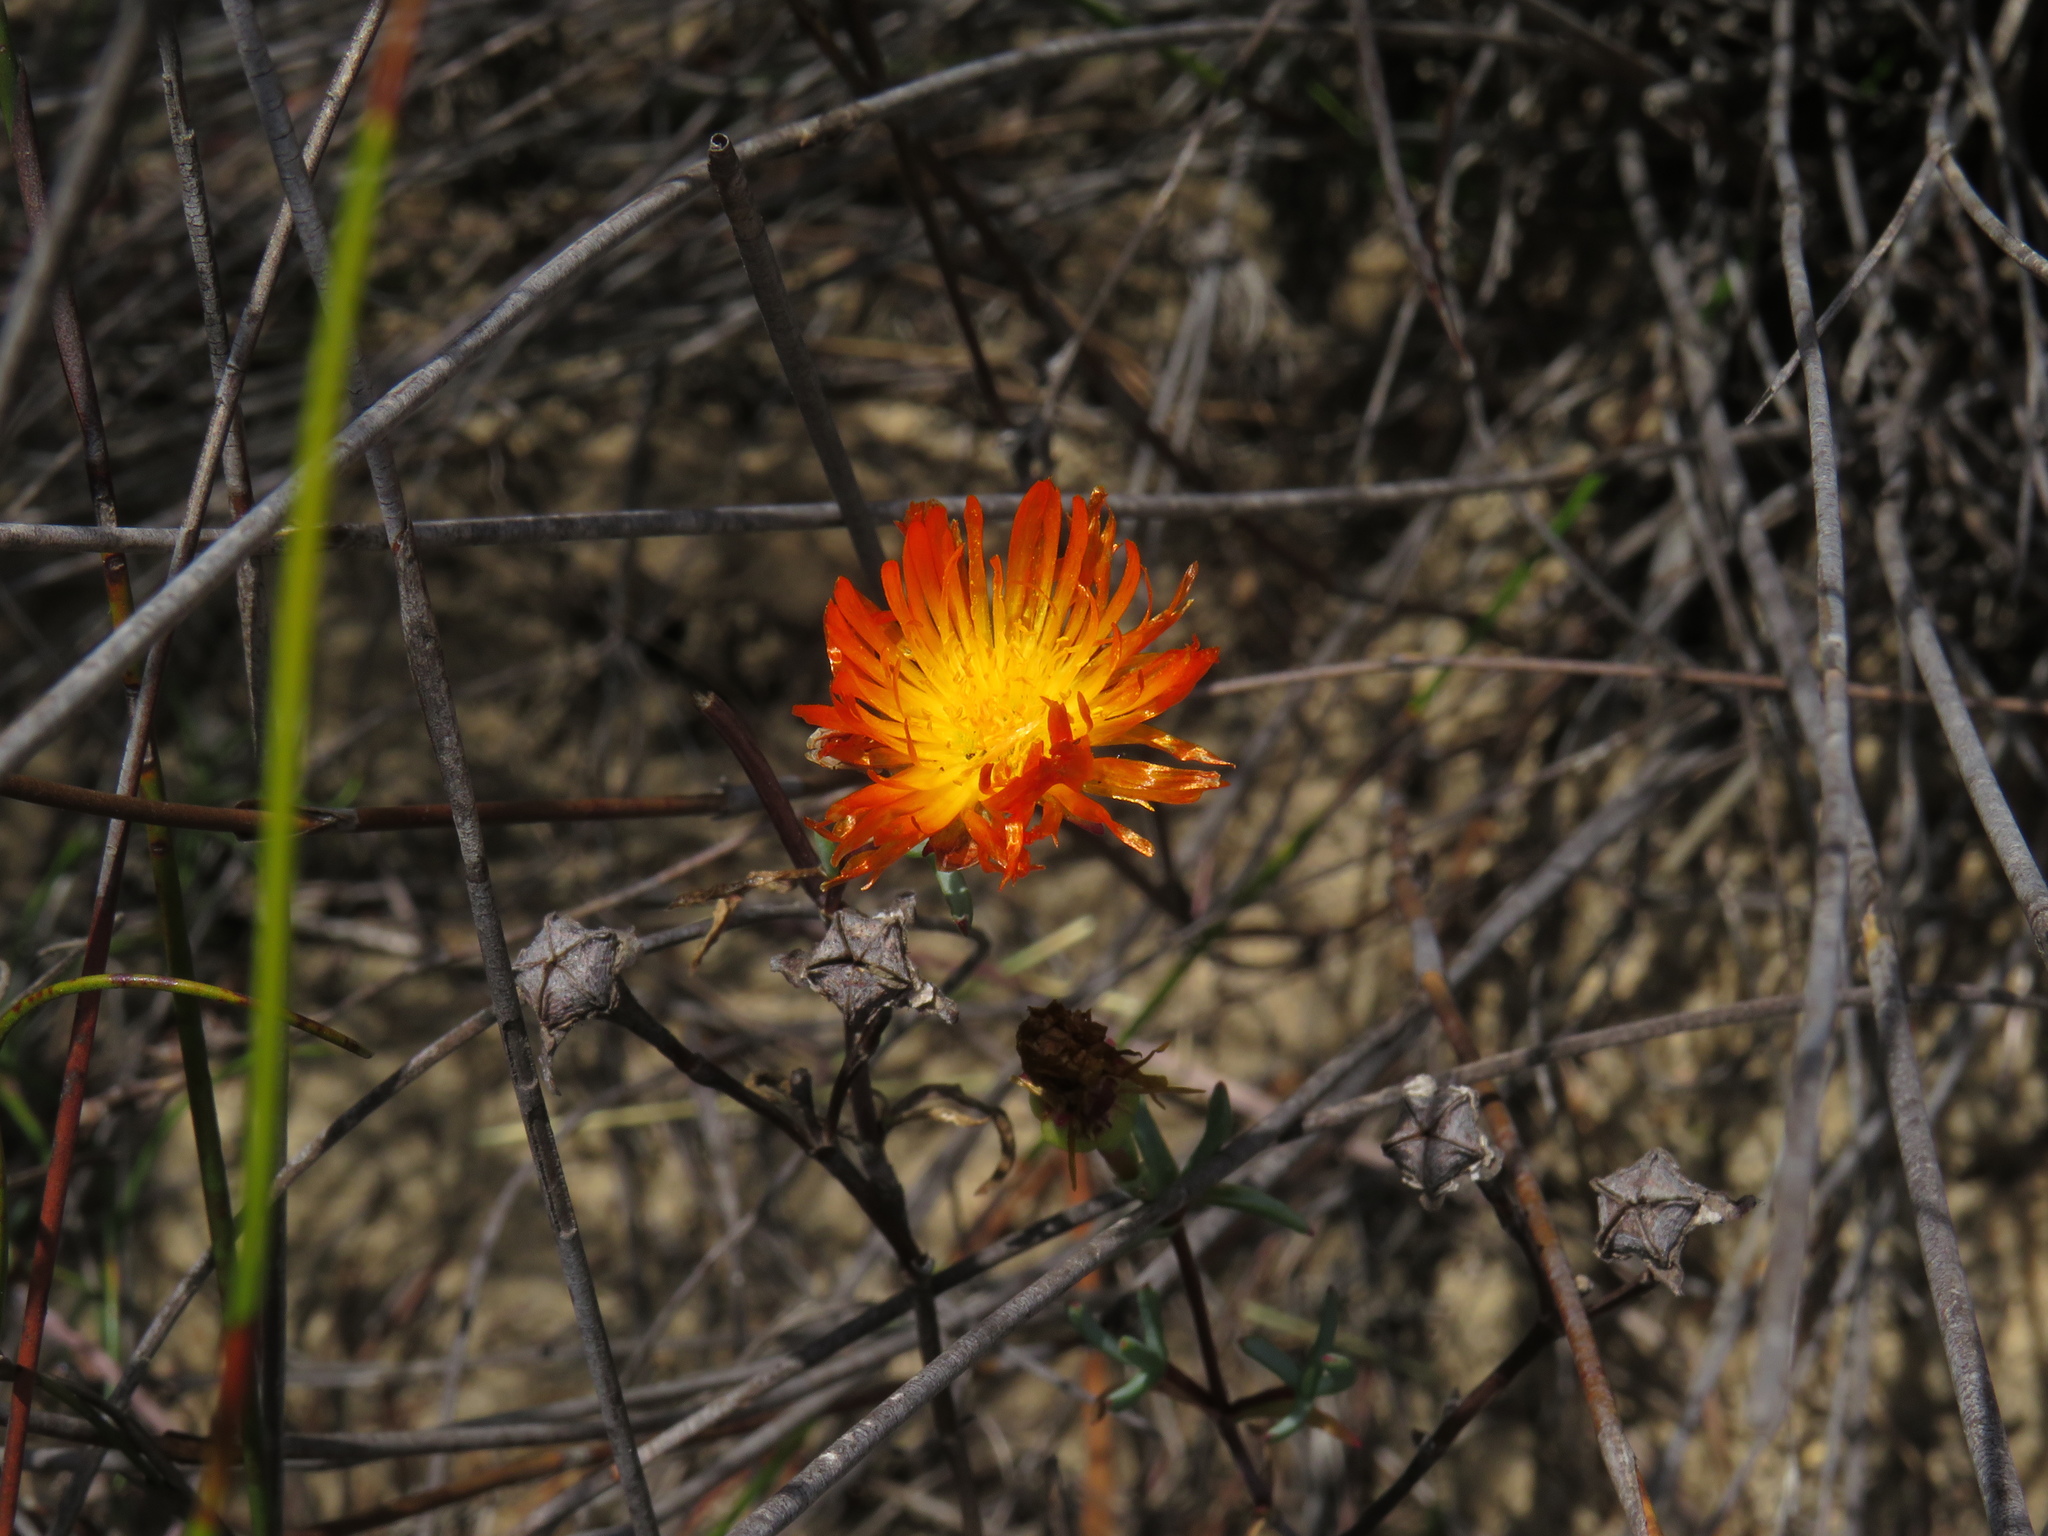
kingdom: Plantae
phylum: Tracheophyta
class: Magnoliopsida
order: Caryophyllales
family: Aizoaceae
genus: Lampranthus
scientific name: Lampranthus glaucoides
